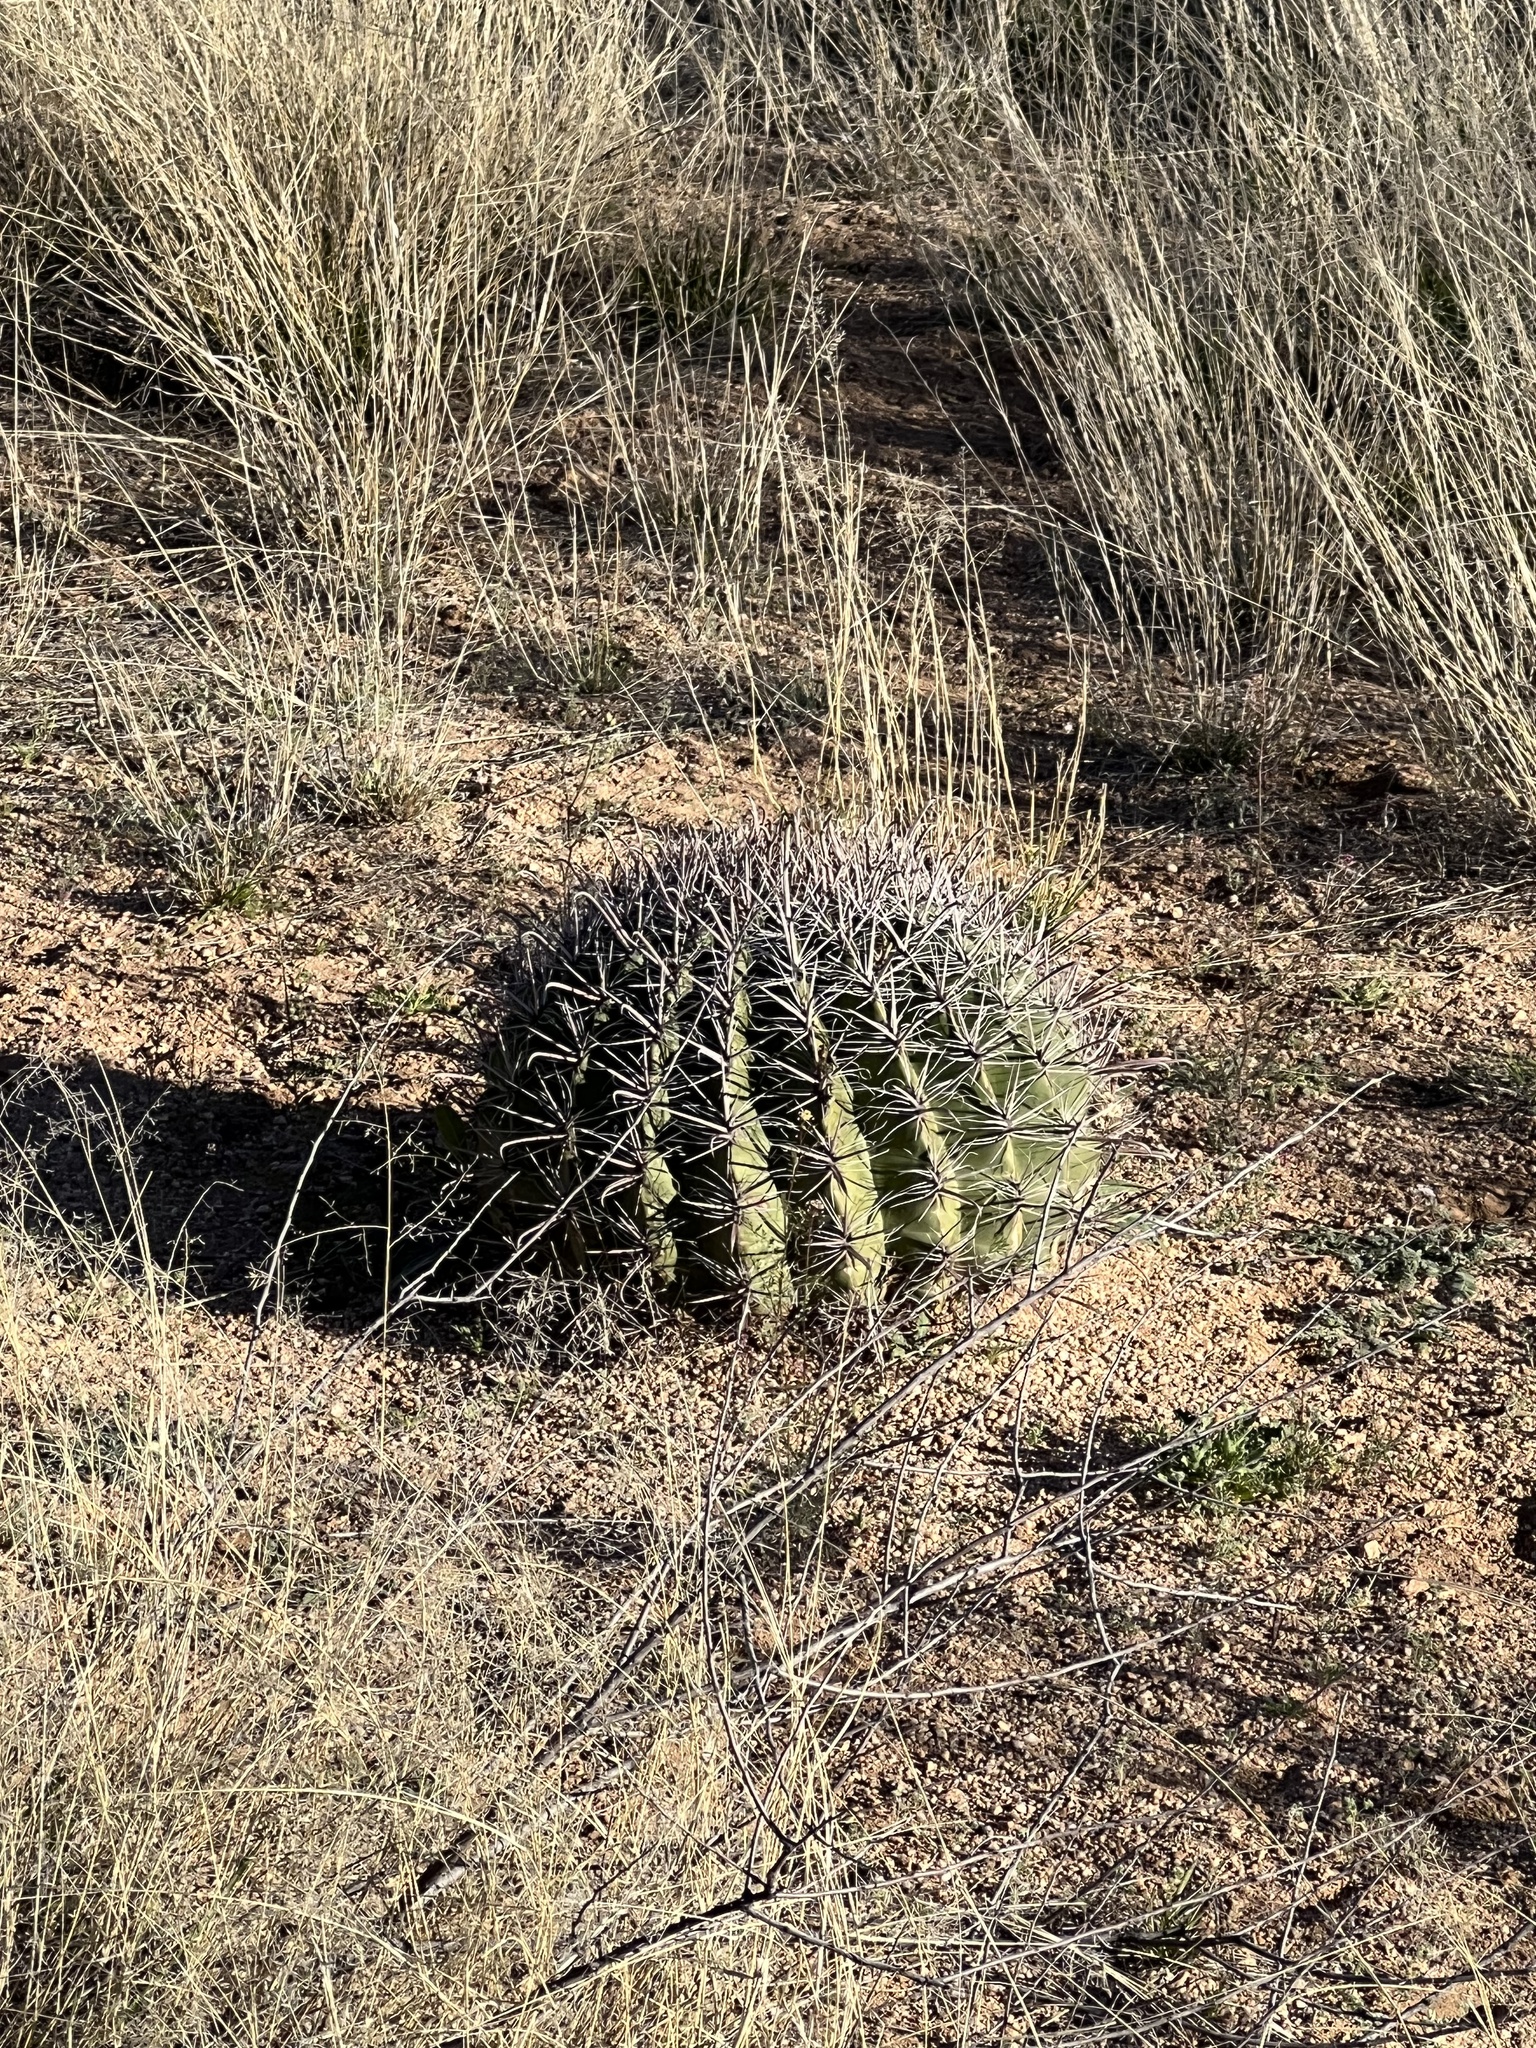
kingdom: Plantae
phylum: Tracheophyta
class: Magnoliopsida
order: Caryophyllales
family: Cactaceae
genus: Ferocactus
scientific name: Ferocactus wislizeni
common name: Candy barrel cactus
